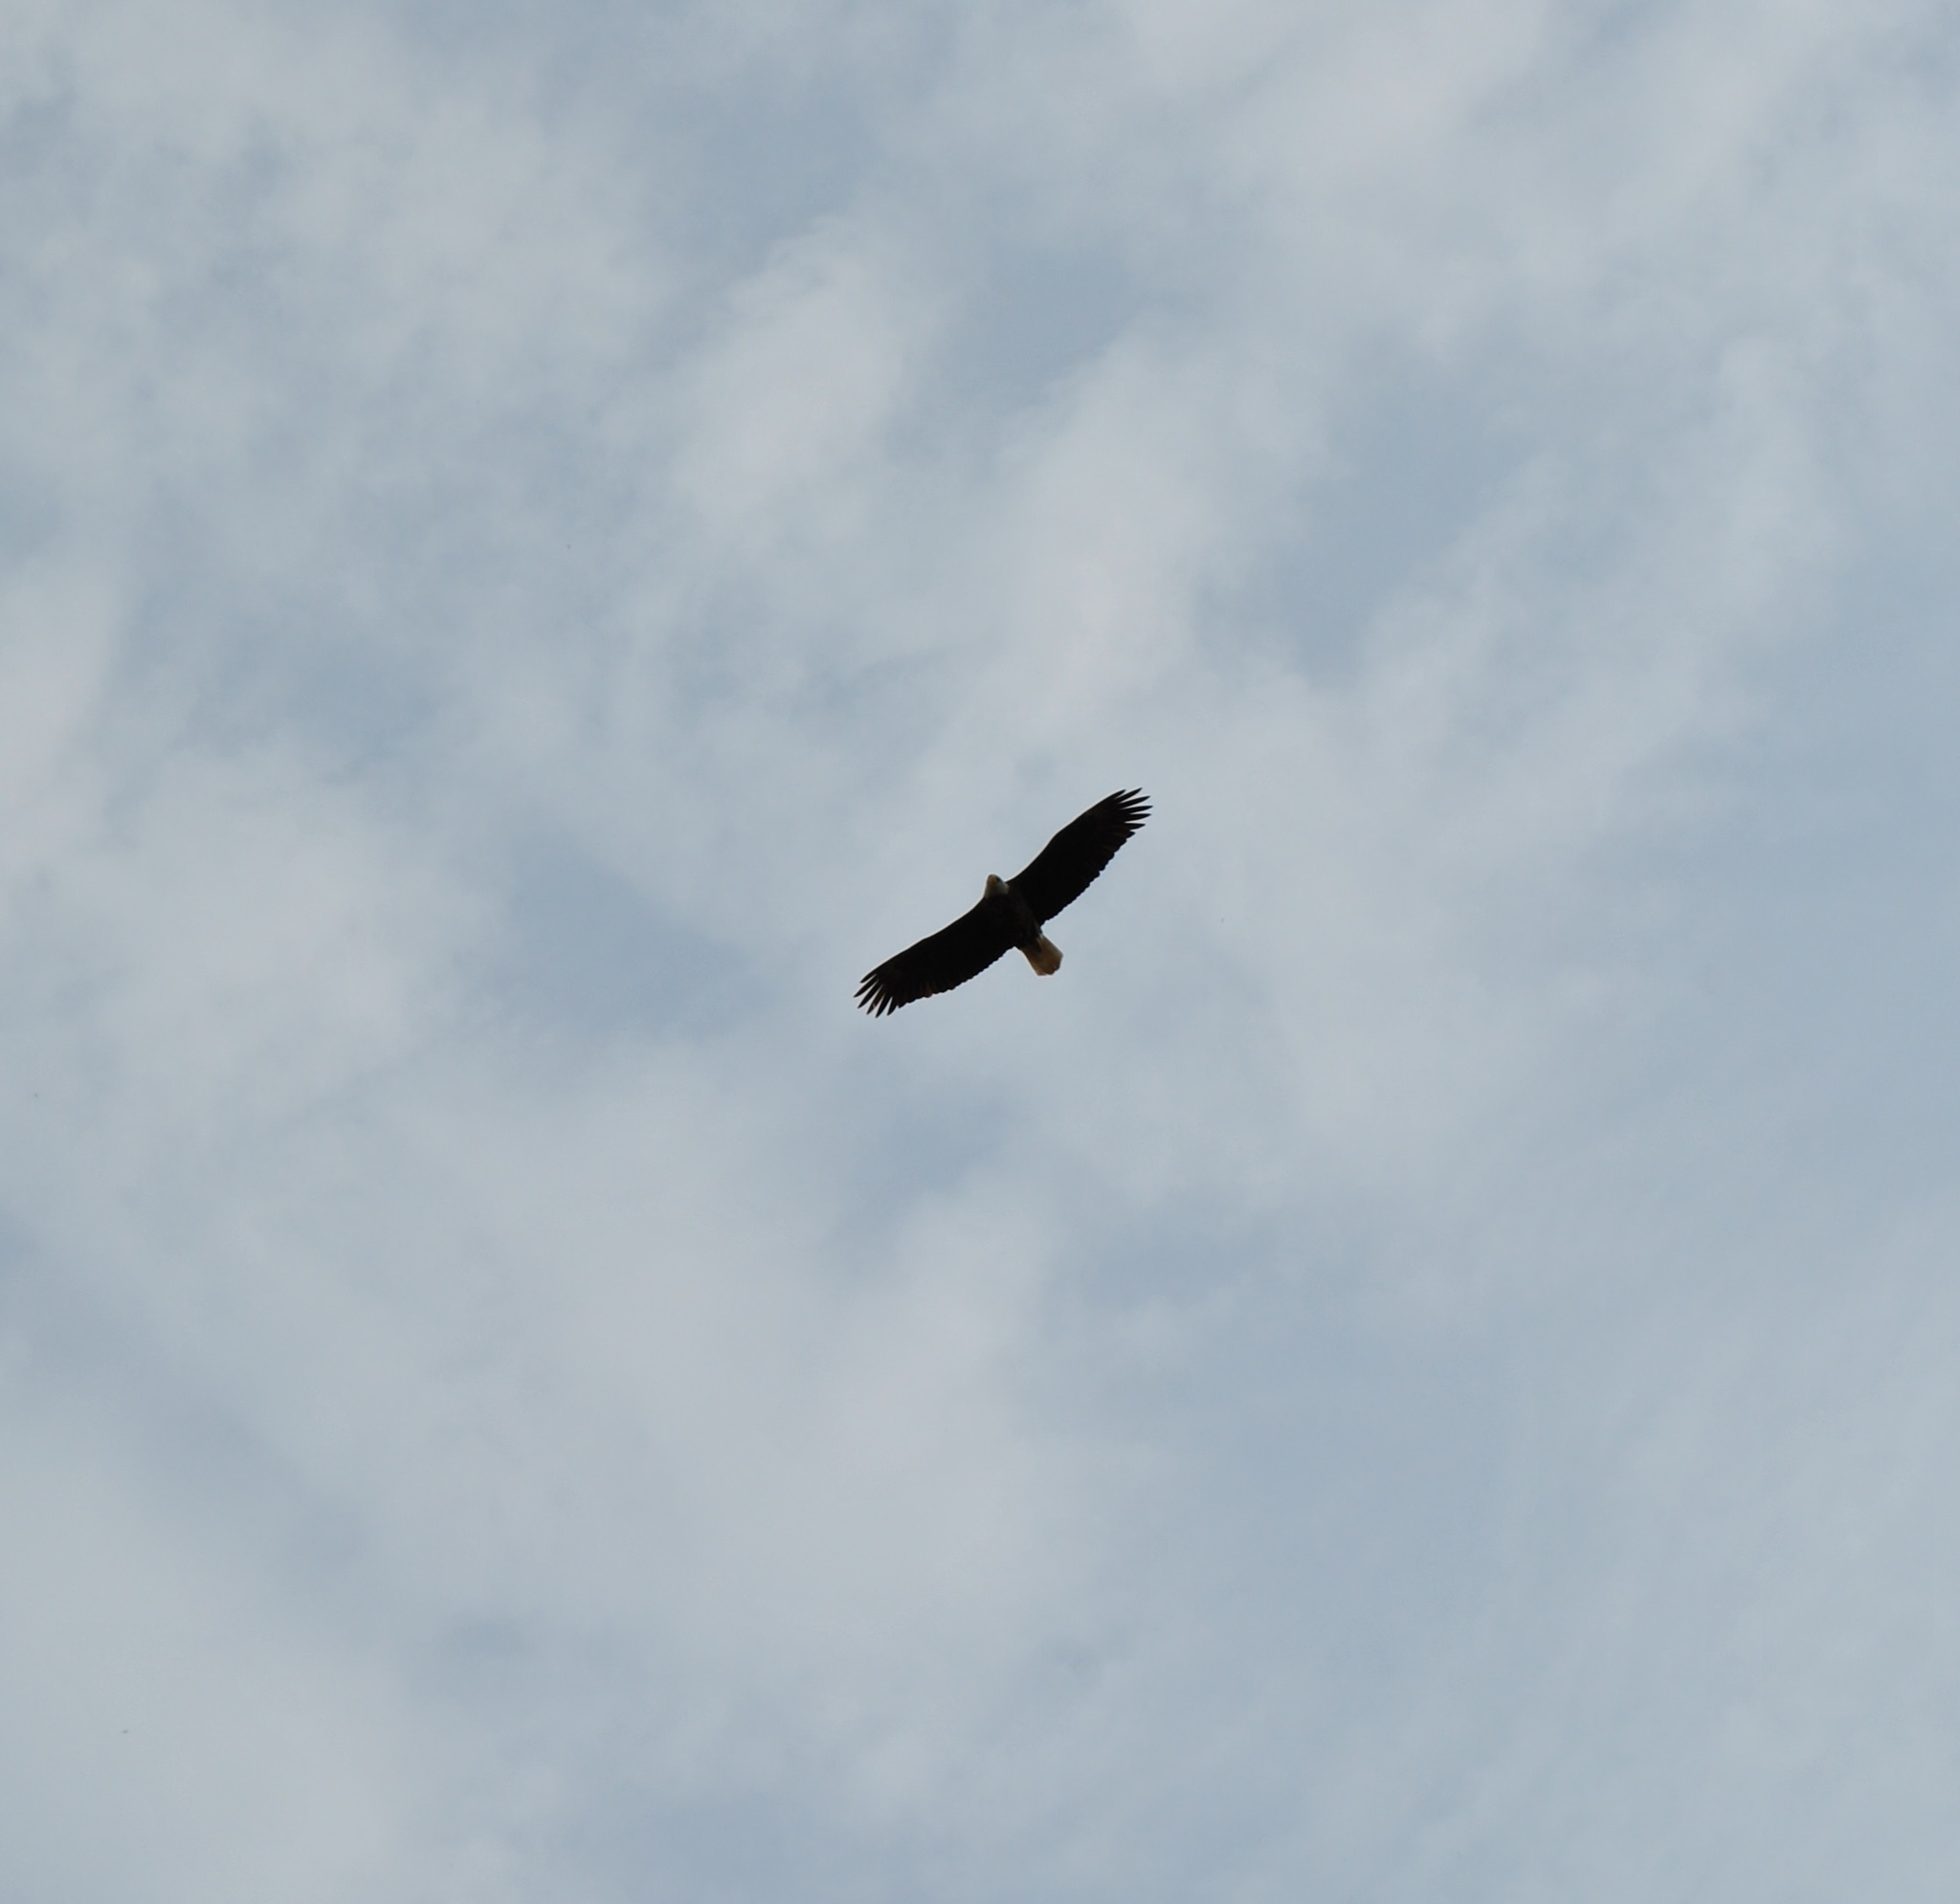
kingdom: Animalia
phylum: Chordata
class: Aves
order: Accipitriformes
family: Accipitridae
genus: Haliaeetus
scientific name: Haliaeetus leucocephalus
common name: Bald eagle
